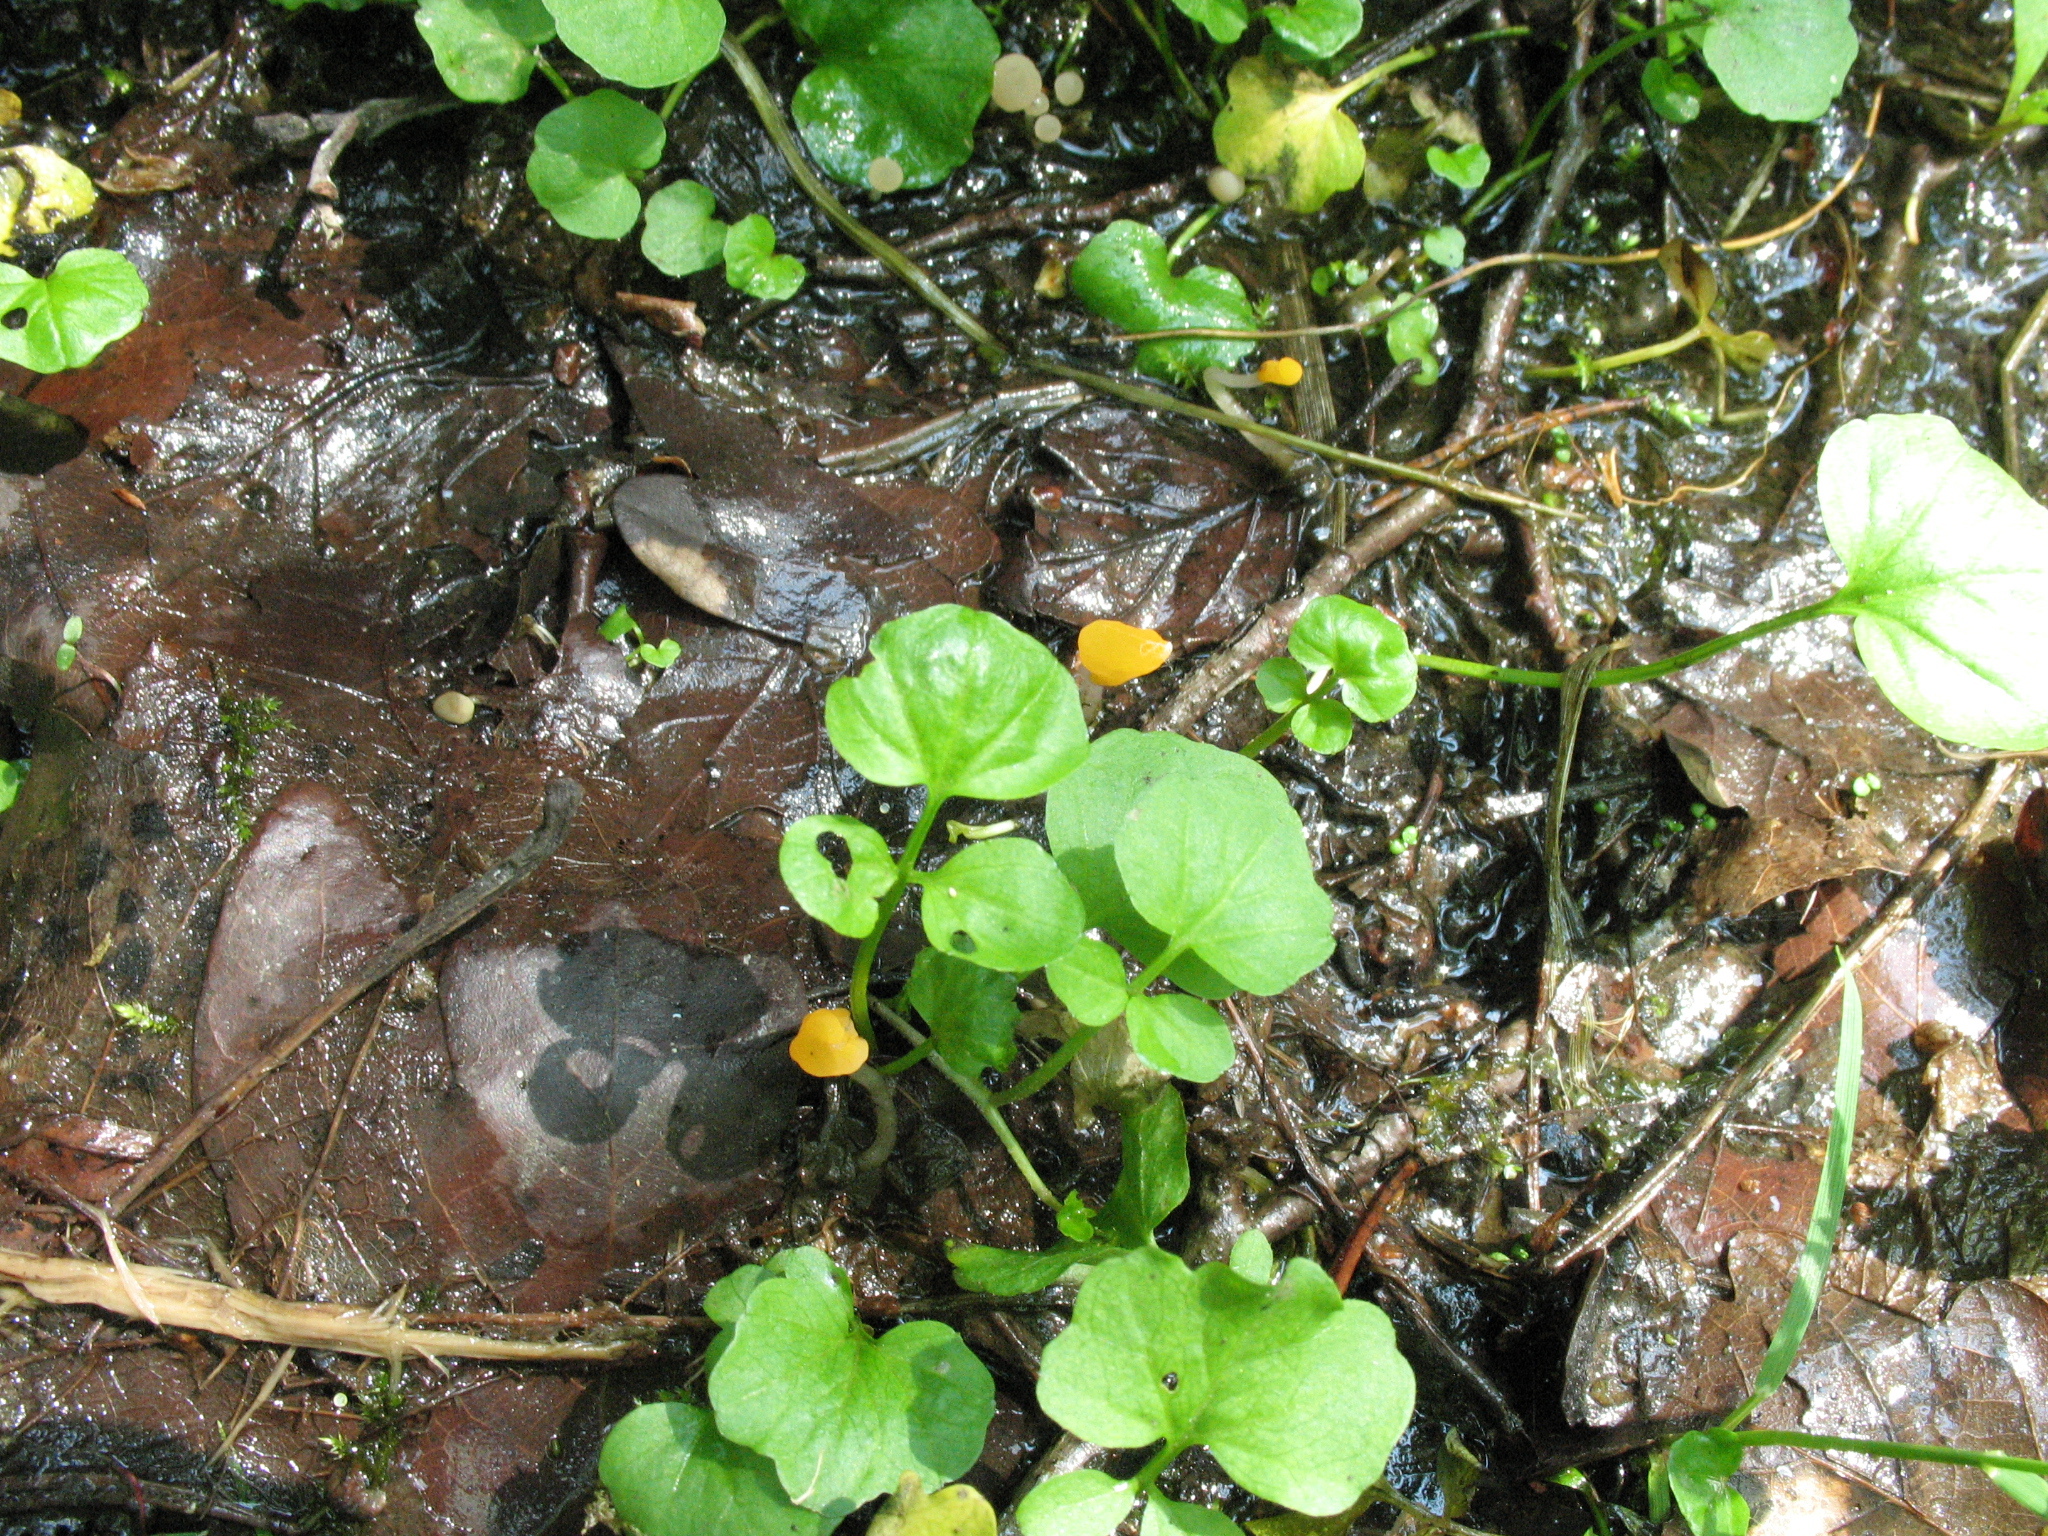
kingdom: Plantae
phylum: Tracheophyta
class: Magnoliopsida
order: Brassicales
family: Brassicaceae
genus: Cardamine
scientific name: Cardamine amara
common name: Large bitter-cress
